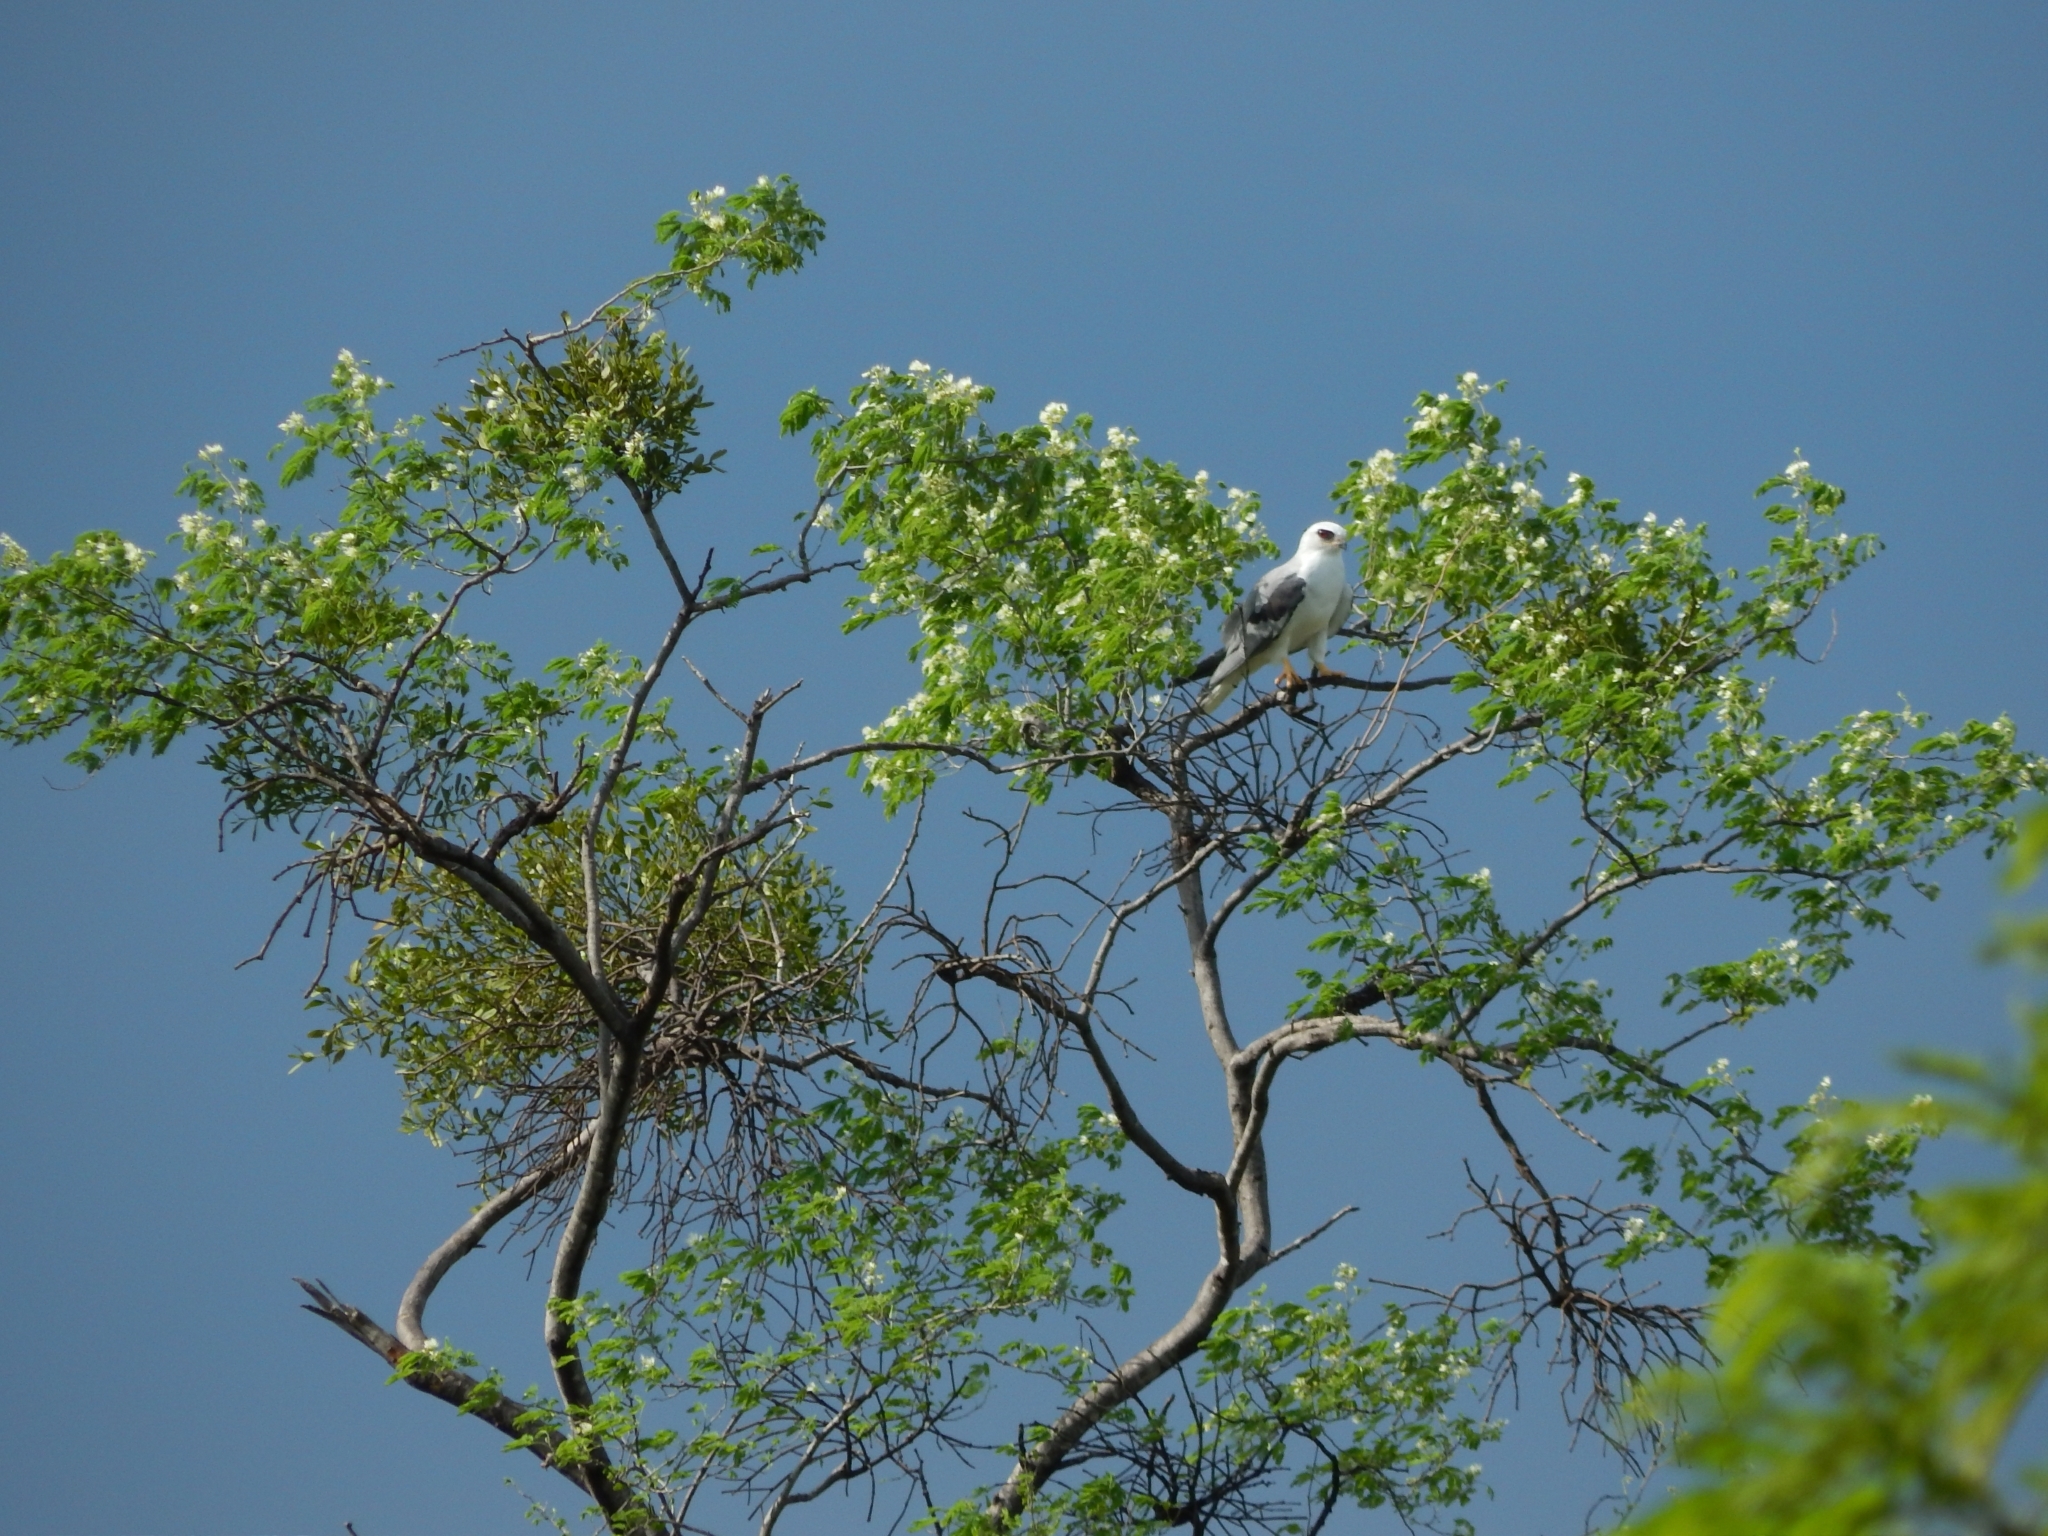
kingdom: Animalia
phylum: Chordata
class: Aves
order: Accipitriformes
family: Accipitridae
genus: Elanus
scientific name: Elanus leucurus
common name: White-tailed kite
